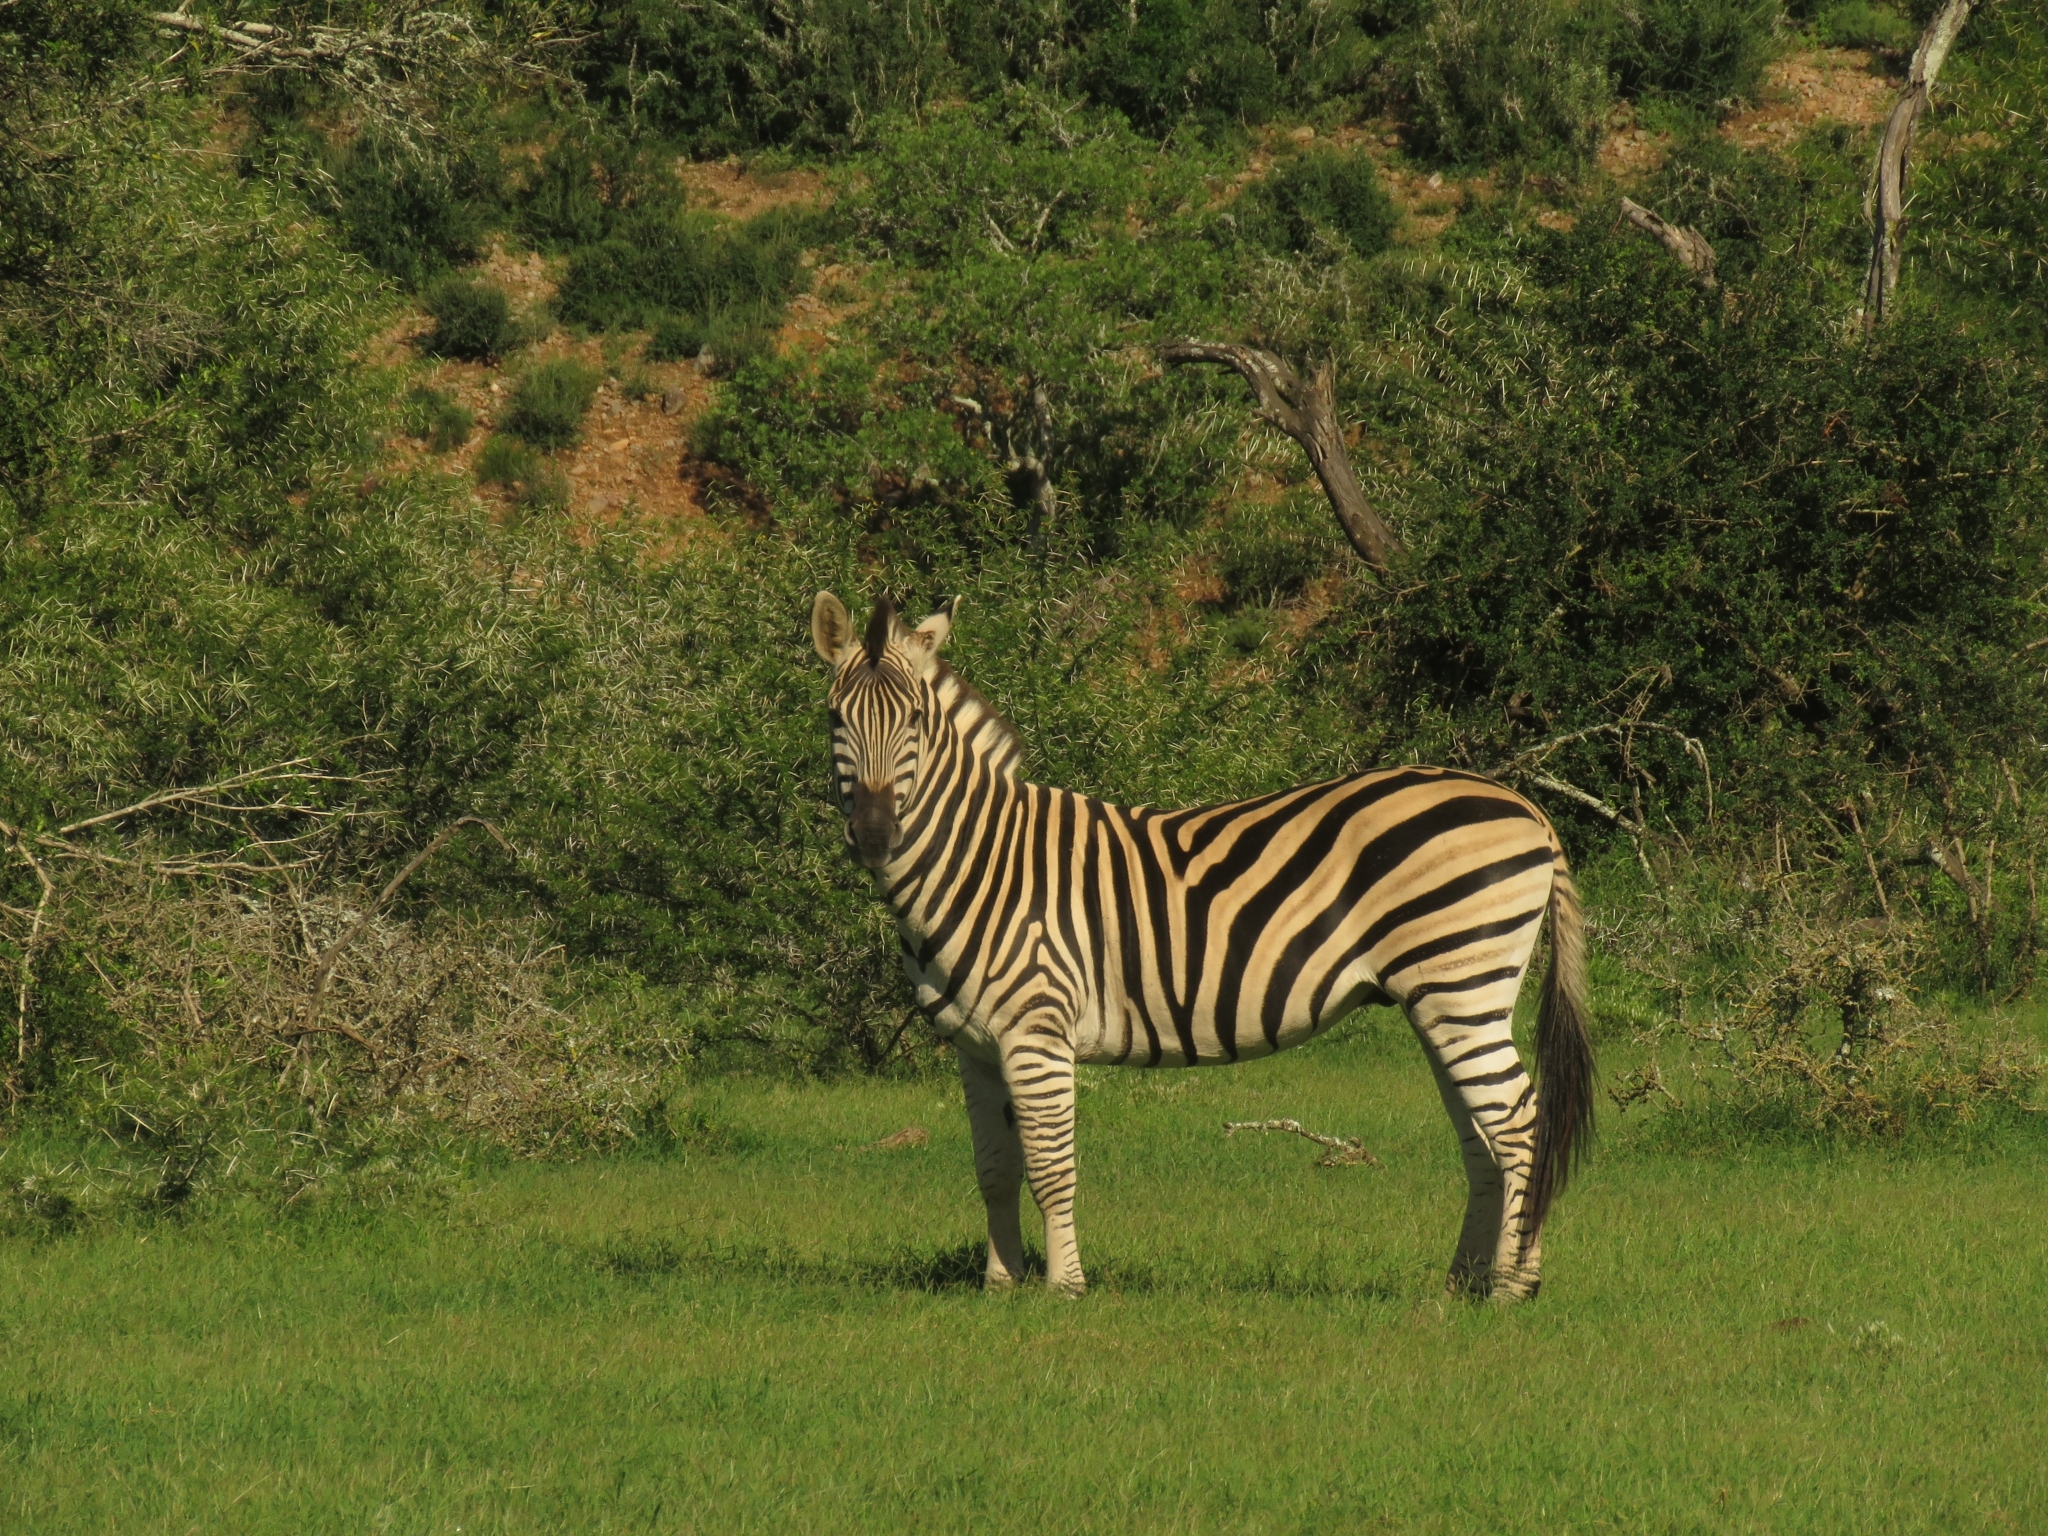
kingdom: Animalia
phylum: Chordata
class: Mammalia
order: Perissodactyla
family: Equidae
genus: Equus
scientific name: Equus quagga
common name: Plains zebra
